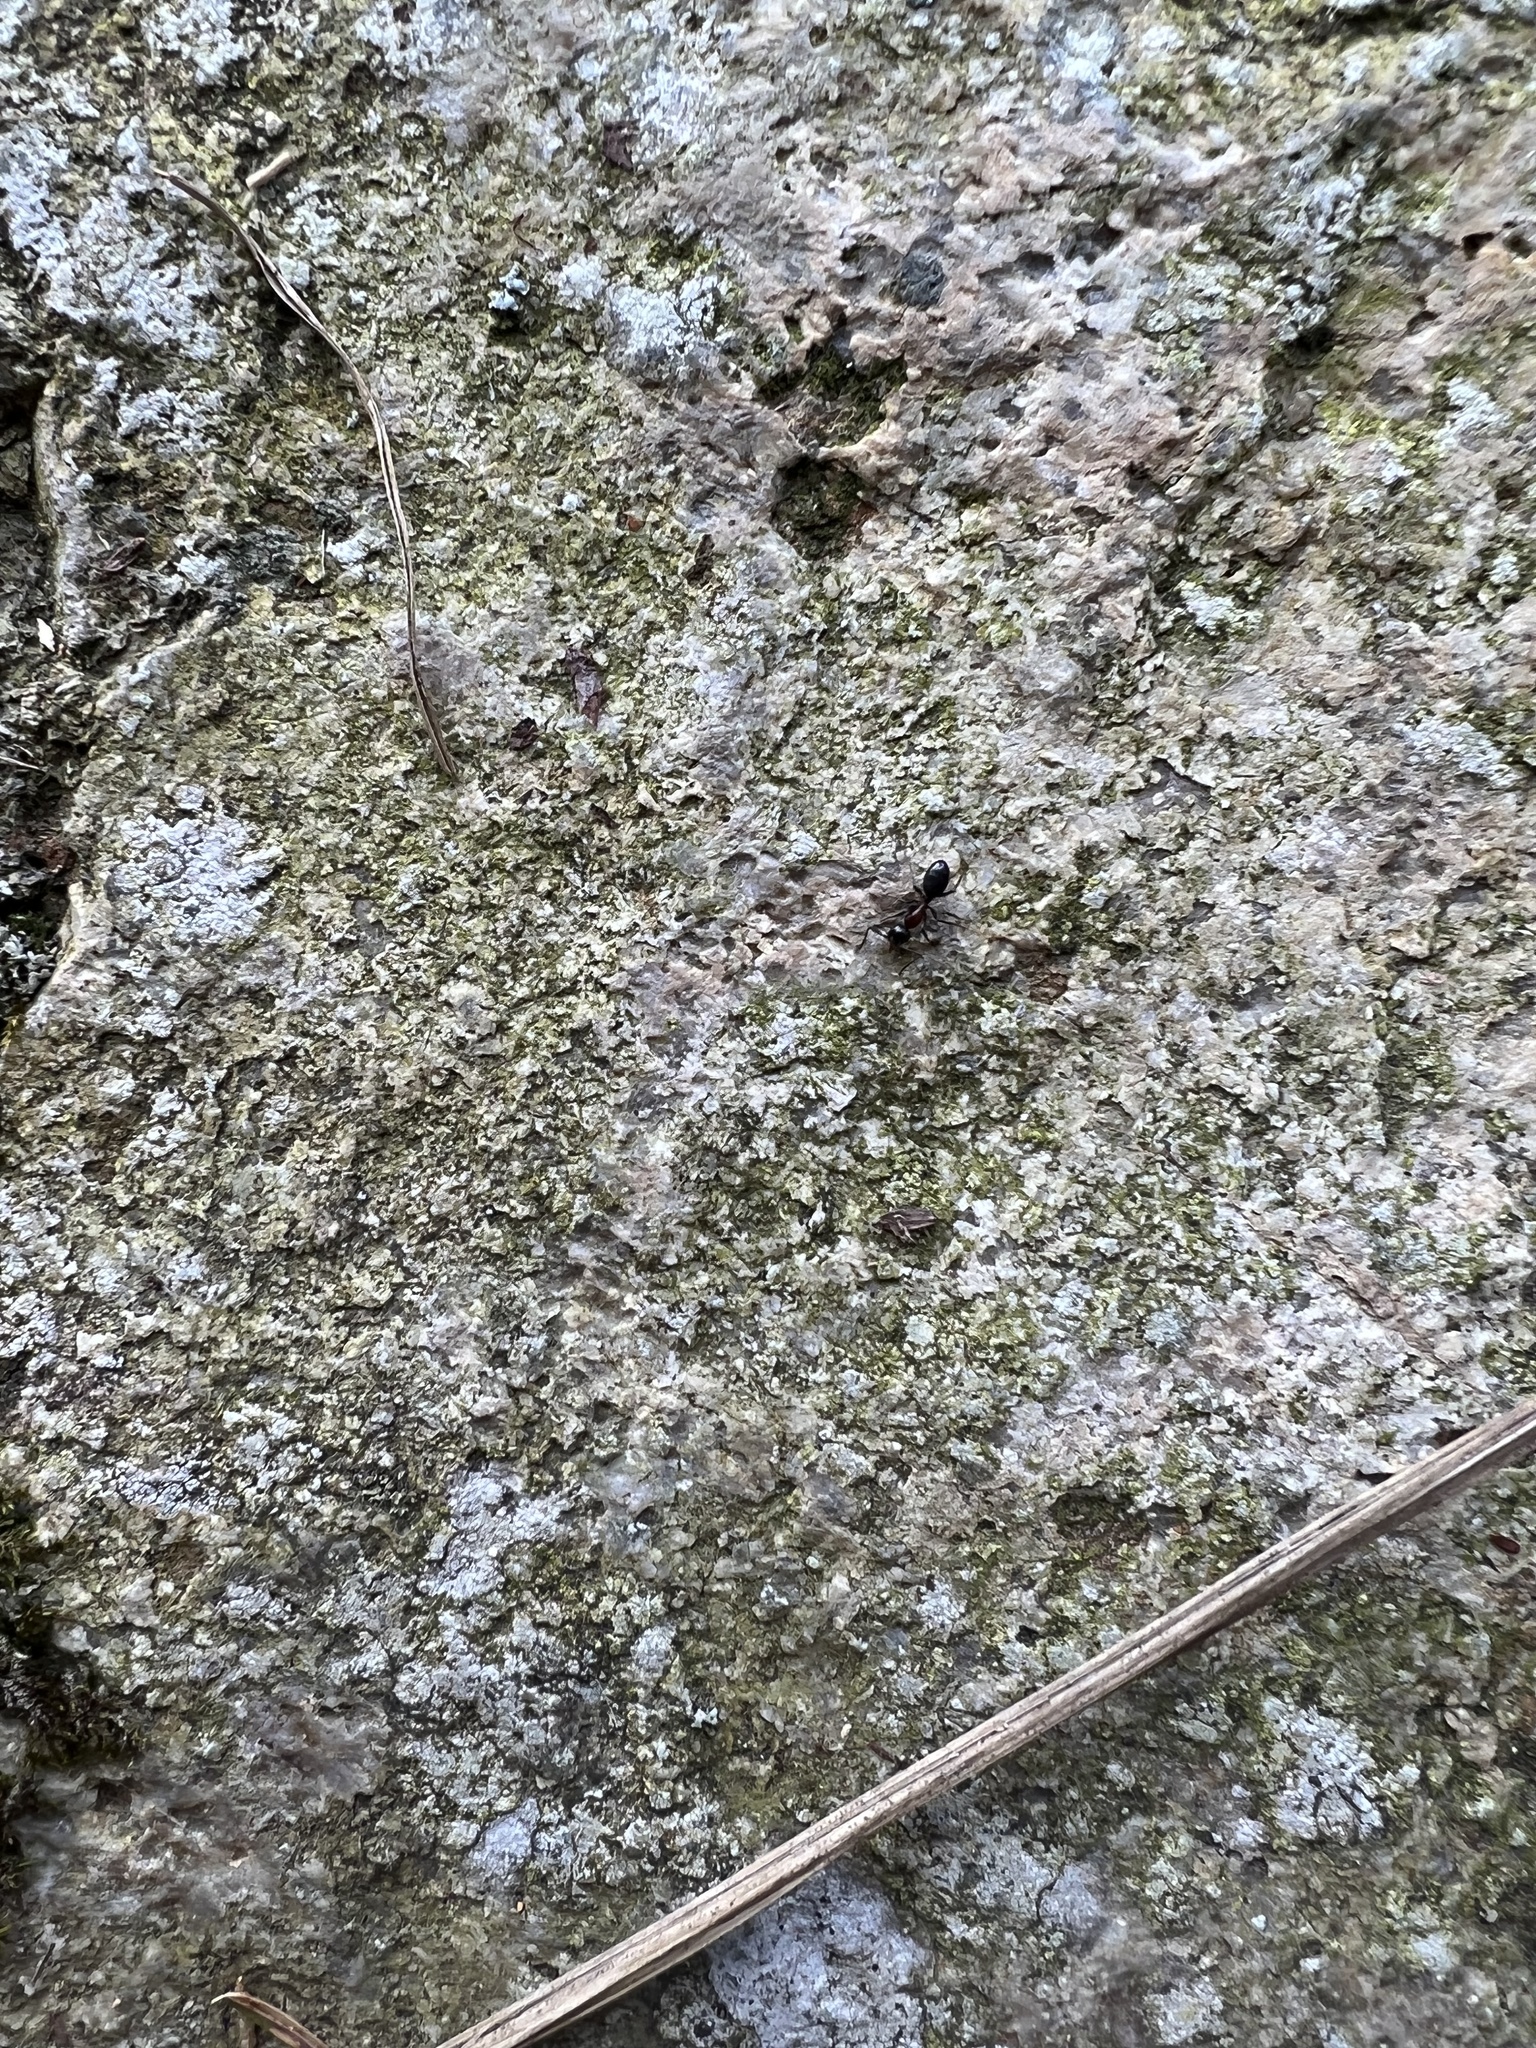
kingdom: Animalia
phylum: Arthropoda
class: Insecta
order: Hymenoptera
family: Formicidae
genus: Camponotus
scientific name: Camponotus novaeboracensis
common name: New york carpenter ant
